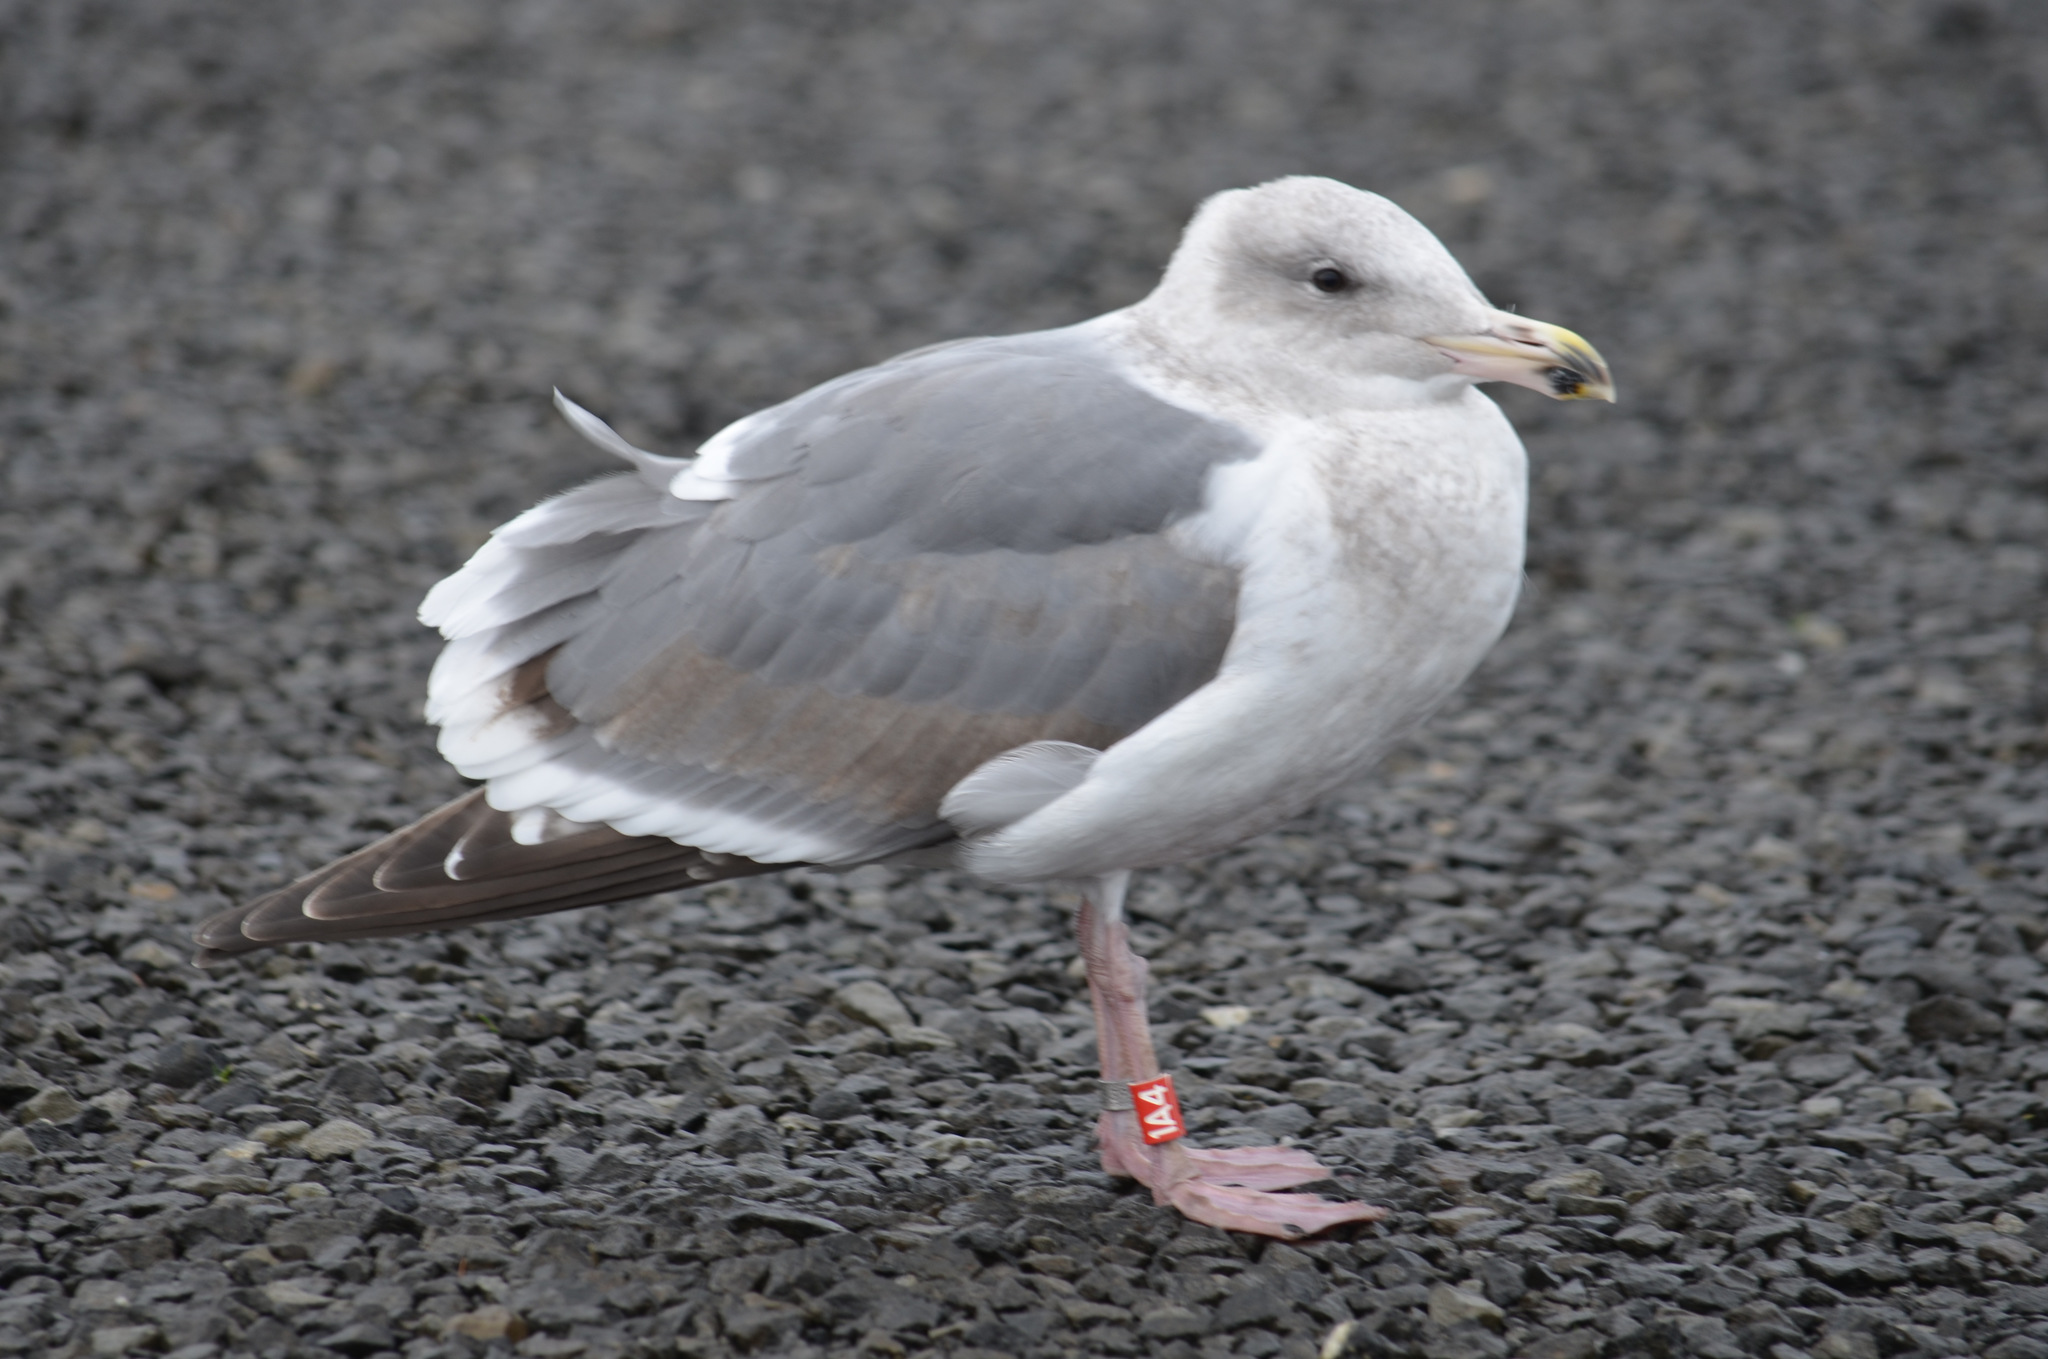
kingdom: Animalia
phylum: Chordata
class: Aves
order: Charadriiformes
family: Laridae
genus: Larus
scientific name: Larus
